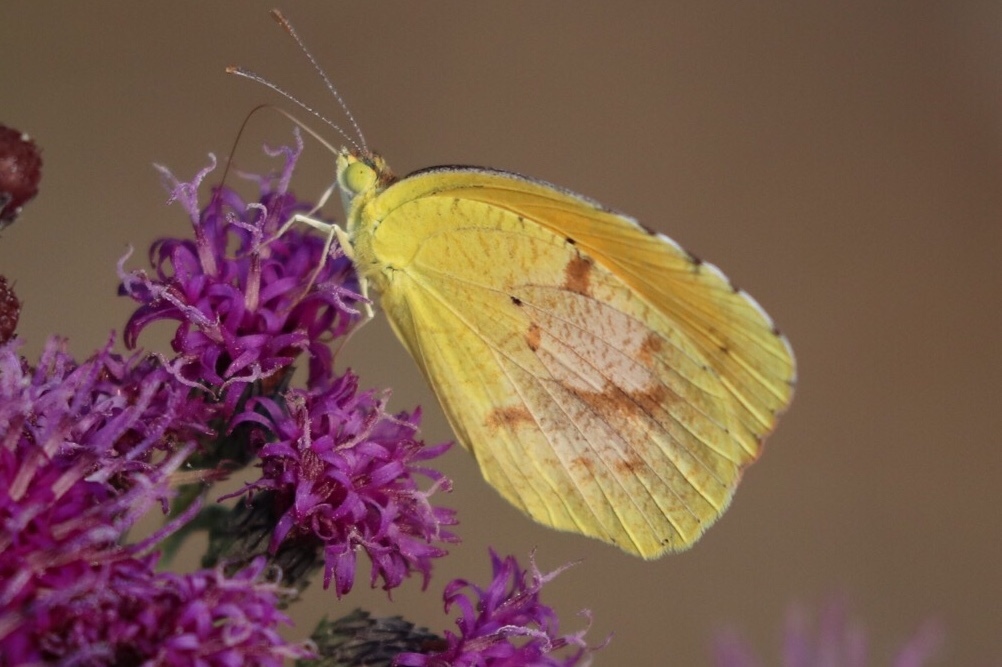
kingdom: Animalia
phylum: Arthropoda
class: Insecta
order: Lepidoptera
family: Pieridae
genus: Abaeis
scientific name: Abaeis nicippe
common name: Sleepy orange
